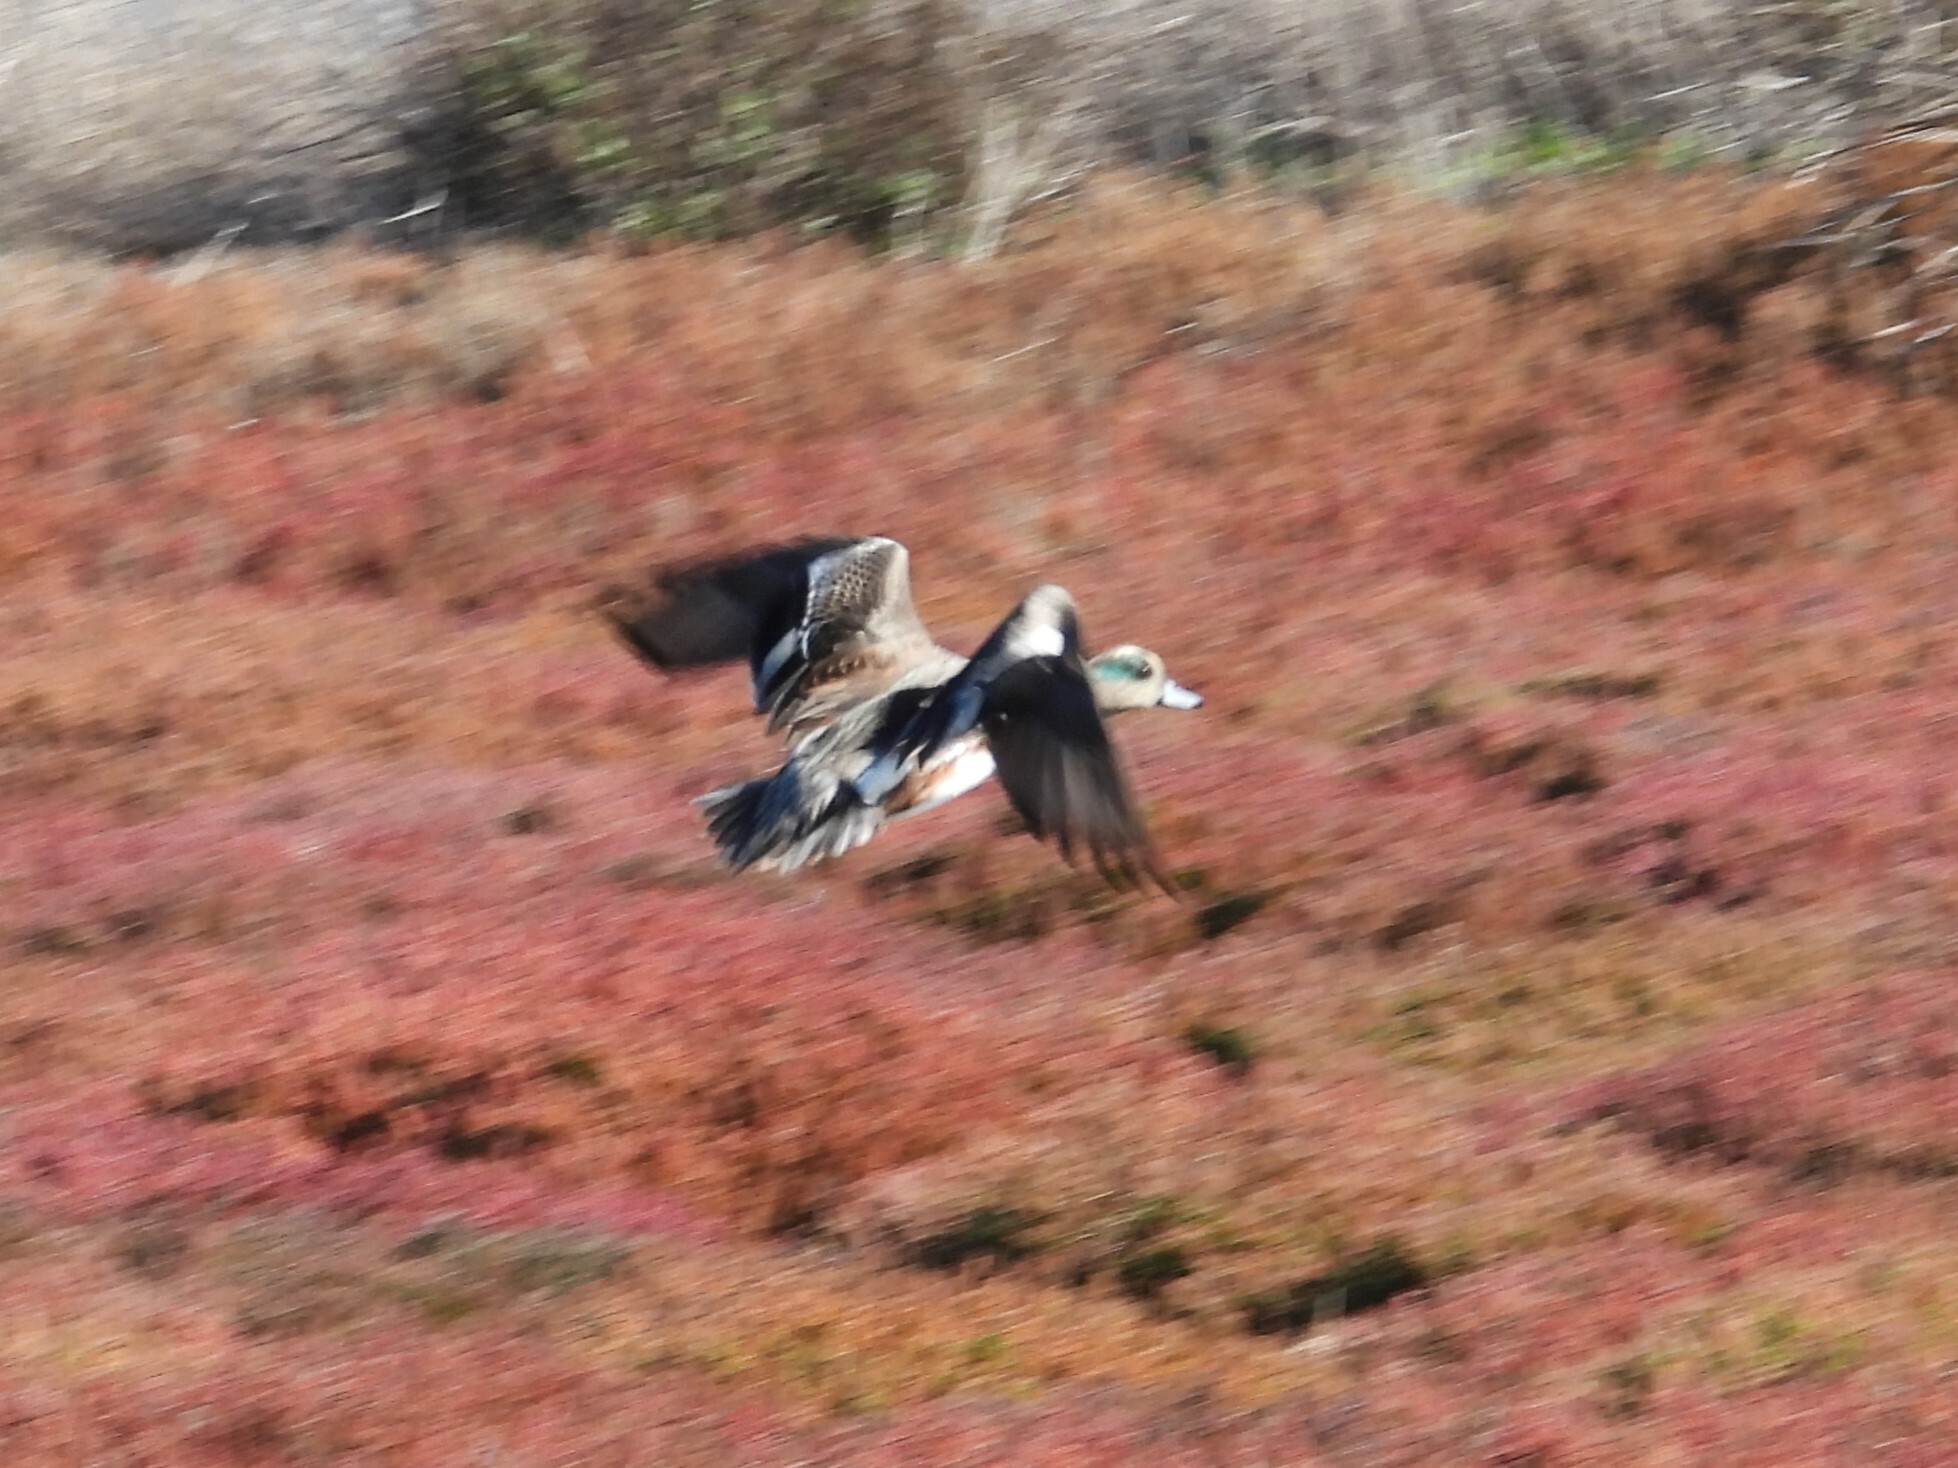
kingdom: Animalia
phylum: Chordata
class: Aves
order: Anseriformes
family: Anatidae
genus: Mareca
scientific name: Mareca americana
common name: American wigeon
